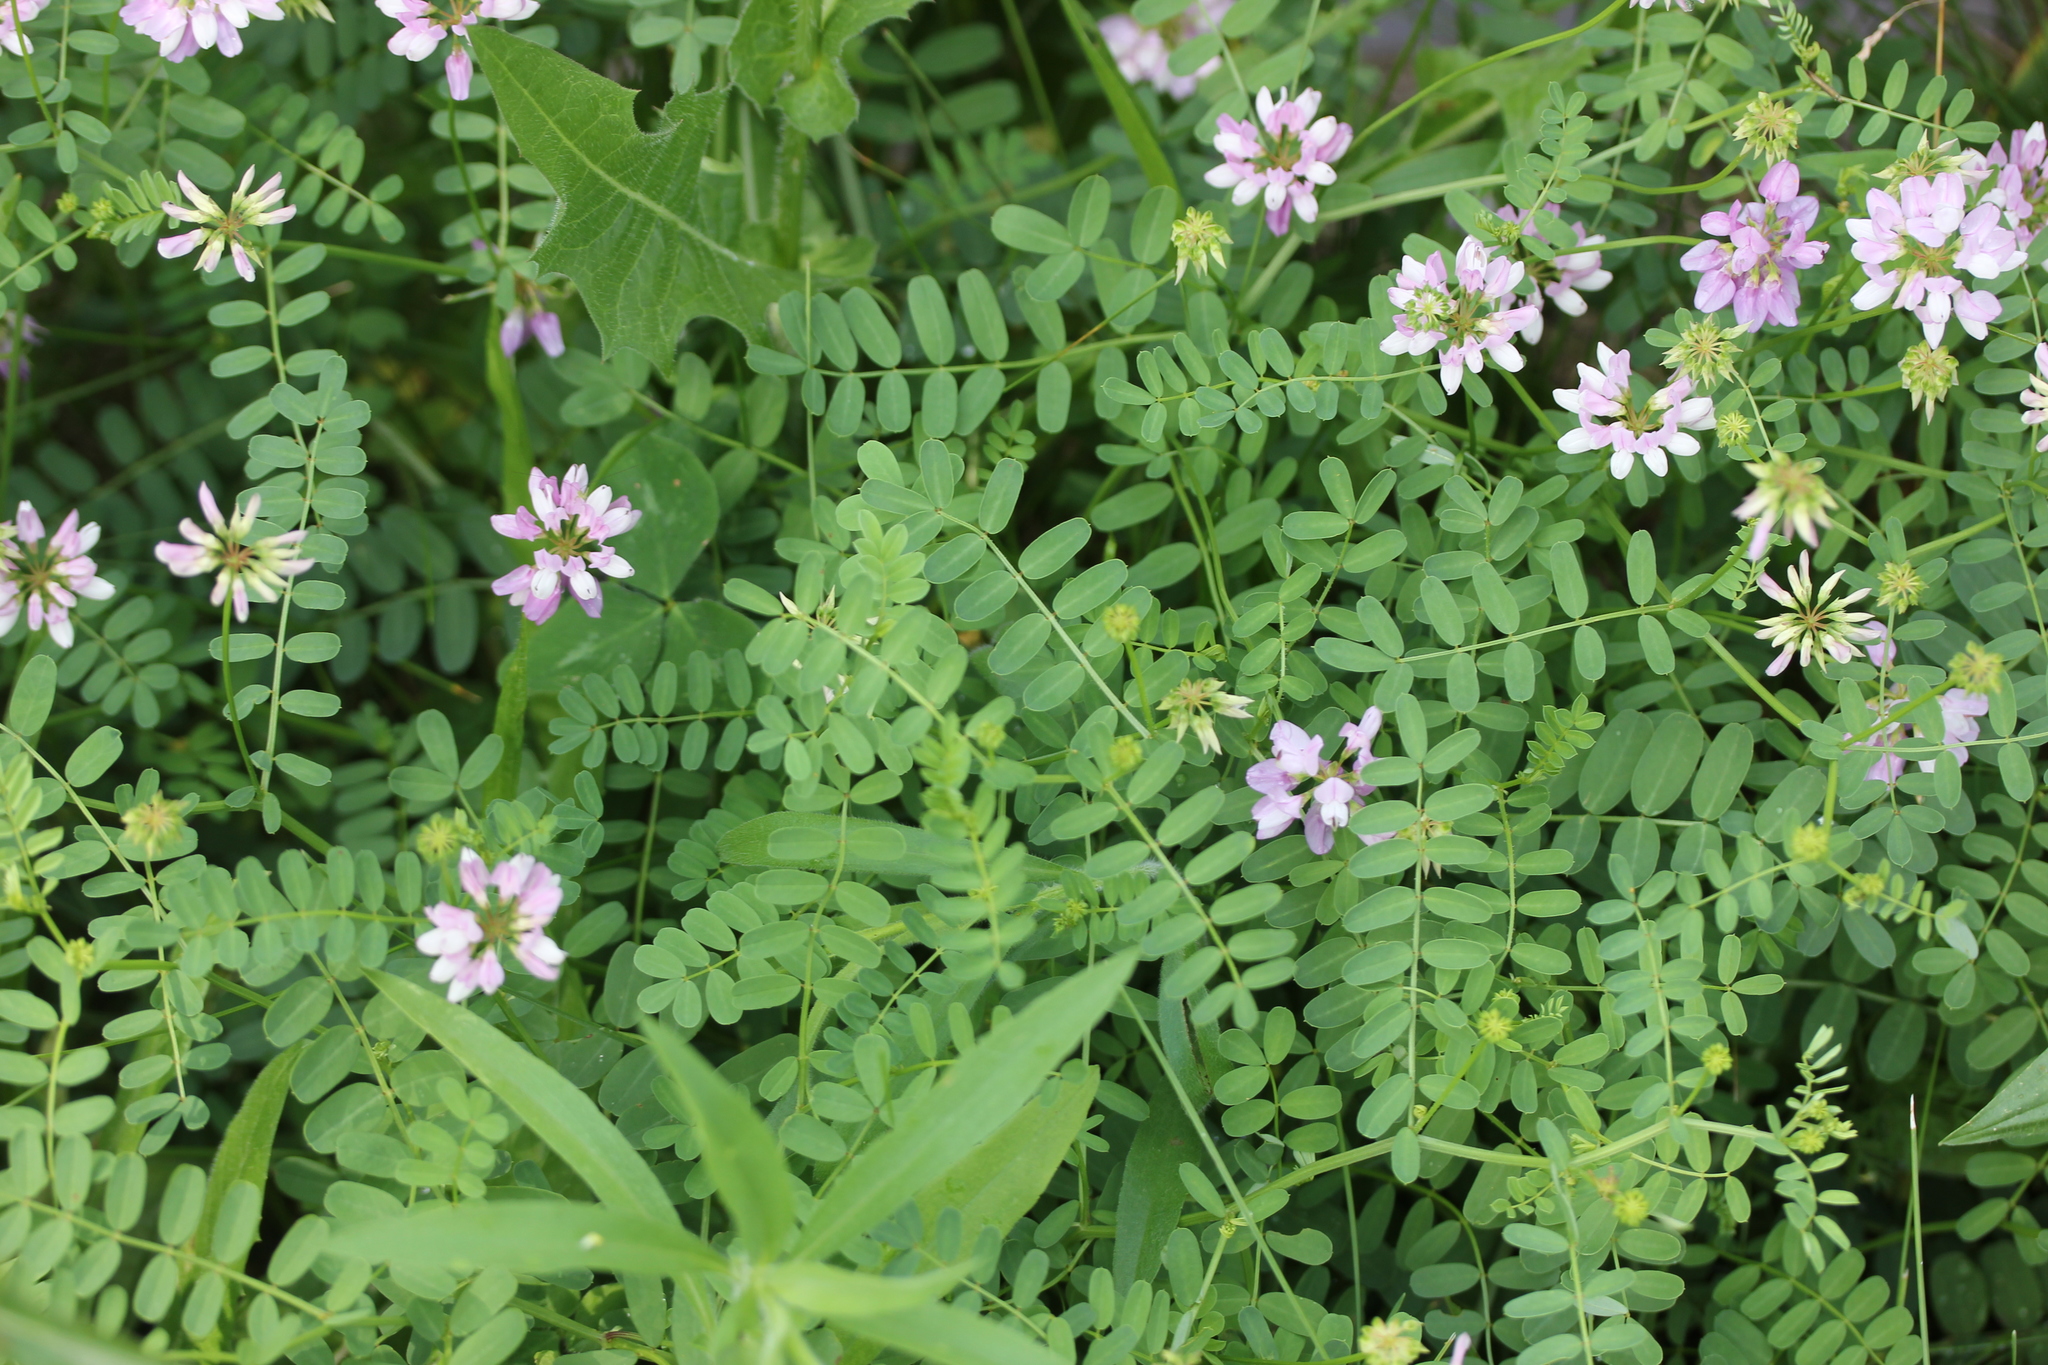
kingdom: Plantae
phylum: Tracheophyta
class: Magnoliopsida
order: Fabales
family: Fabaceae
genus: Coronilla
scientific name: Coronilla varia
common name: Crownvetch
